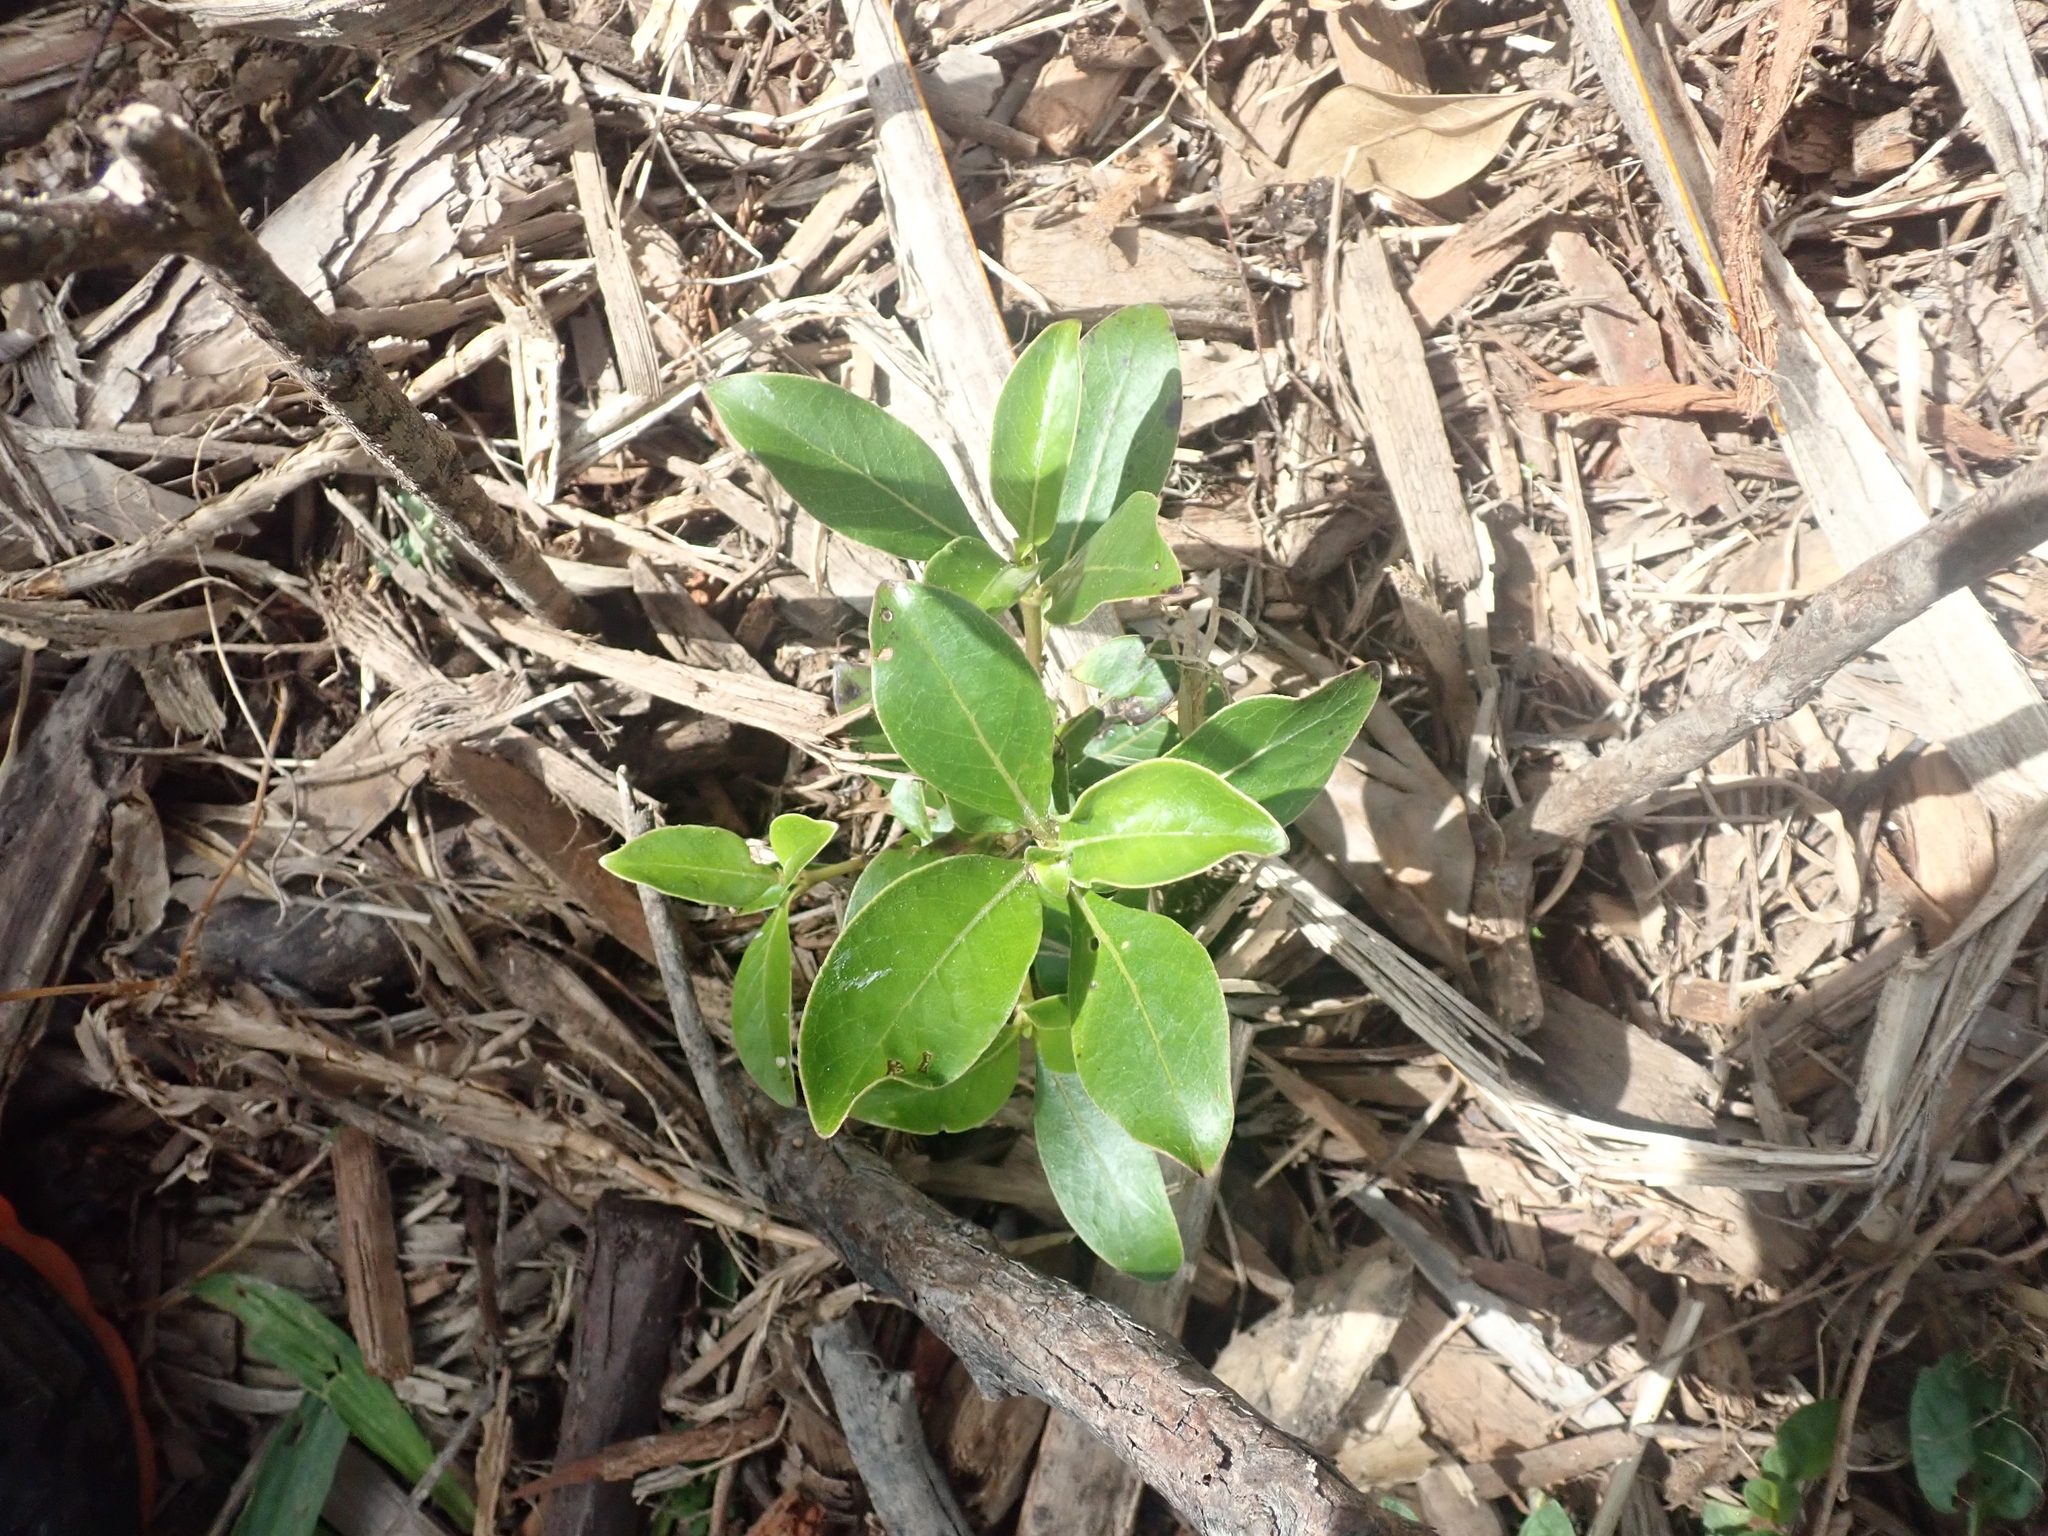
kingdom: Plantae
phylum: Tracheophyta
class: Magnoliopsida
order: Gentianales
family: Rubiaceae
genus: Coprosma
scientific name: Coprosma robusta
